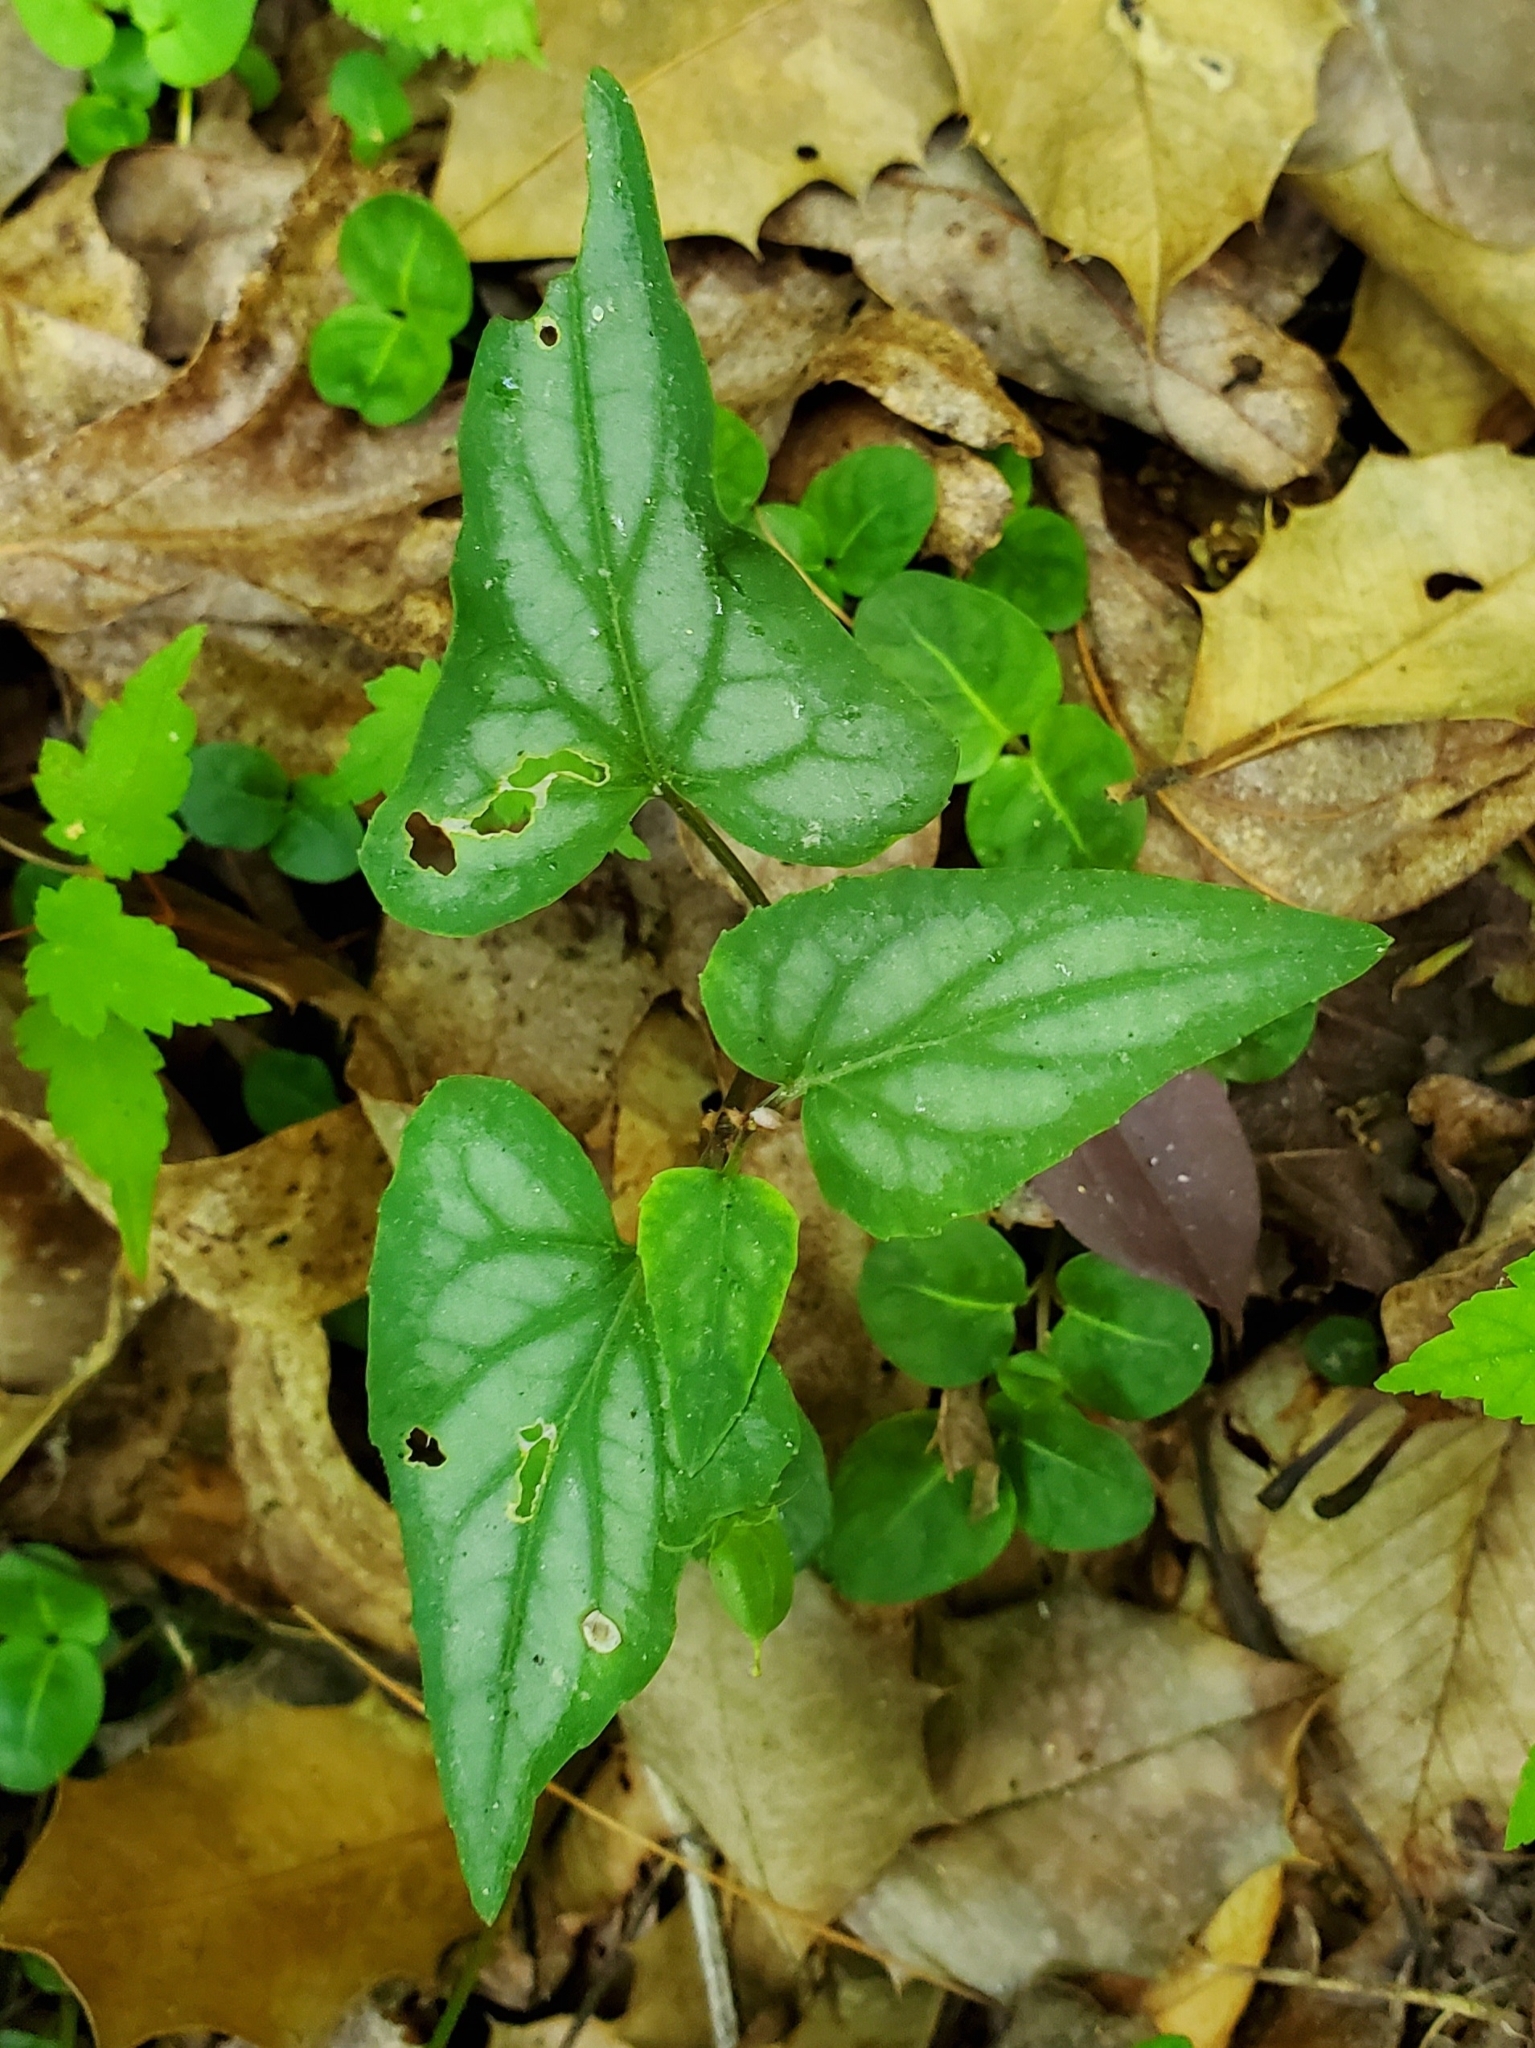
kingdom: Plantae
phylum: Tracheophyta
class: Magnoliopsida
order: Malpighiales
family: Violaceae
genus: Viola
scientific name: Viola hastata
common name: Spear-leaf violet
